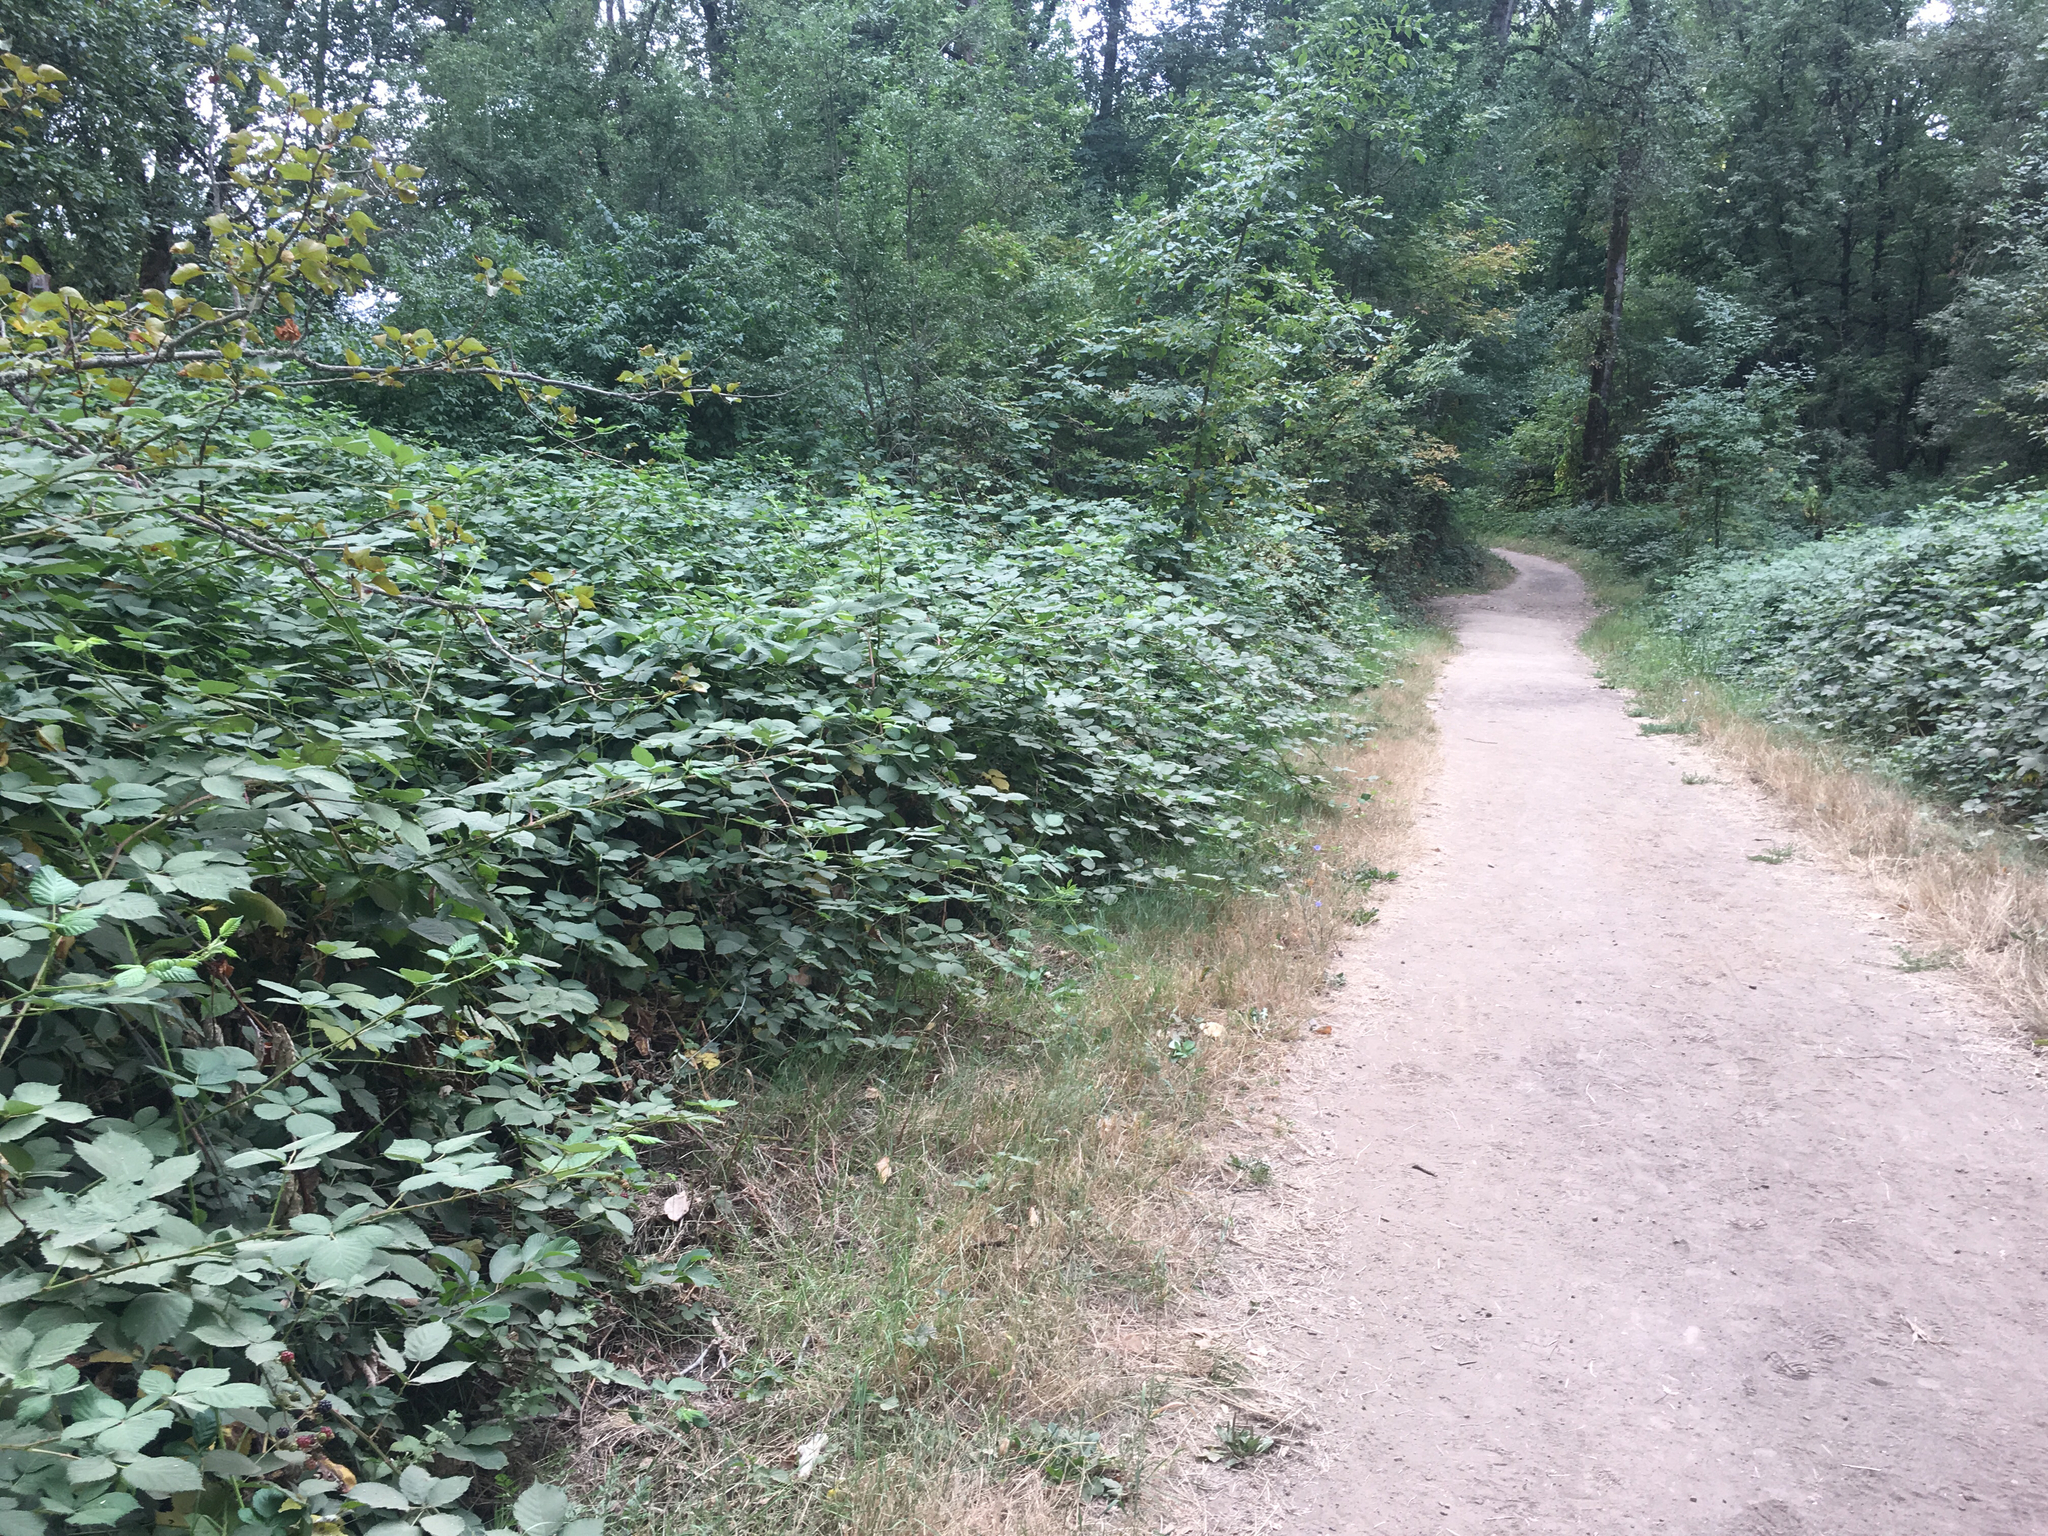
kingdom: Plantae
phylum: Tracheophyta
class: Magnoliopsida
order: Rosales
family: Rosaceae
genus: Rubus
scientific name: Rubus armeniacus
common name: Himalayan blackberry
